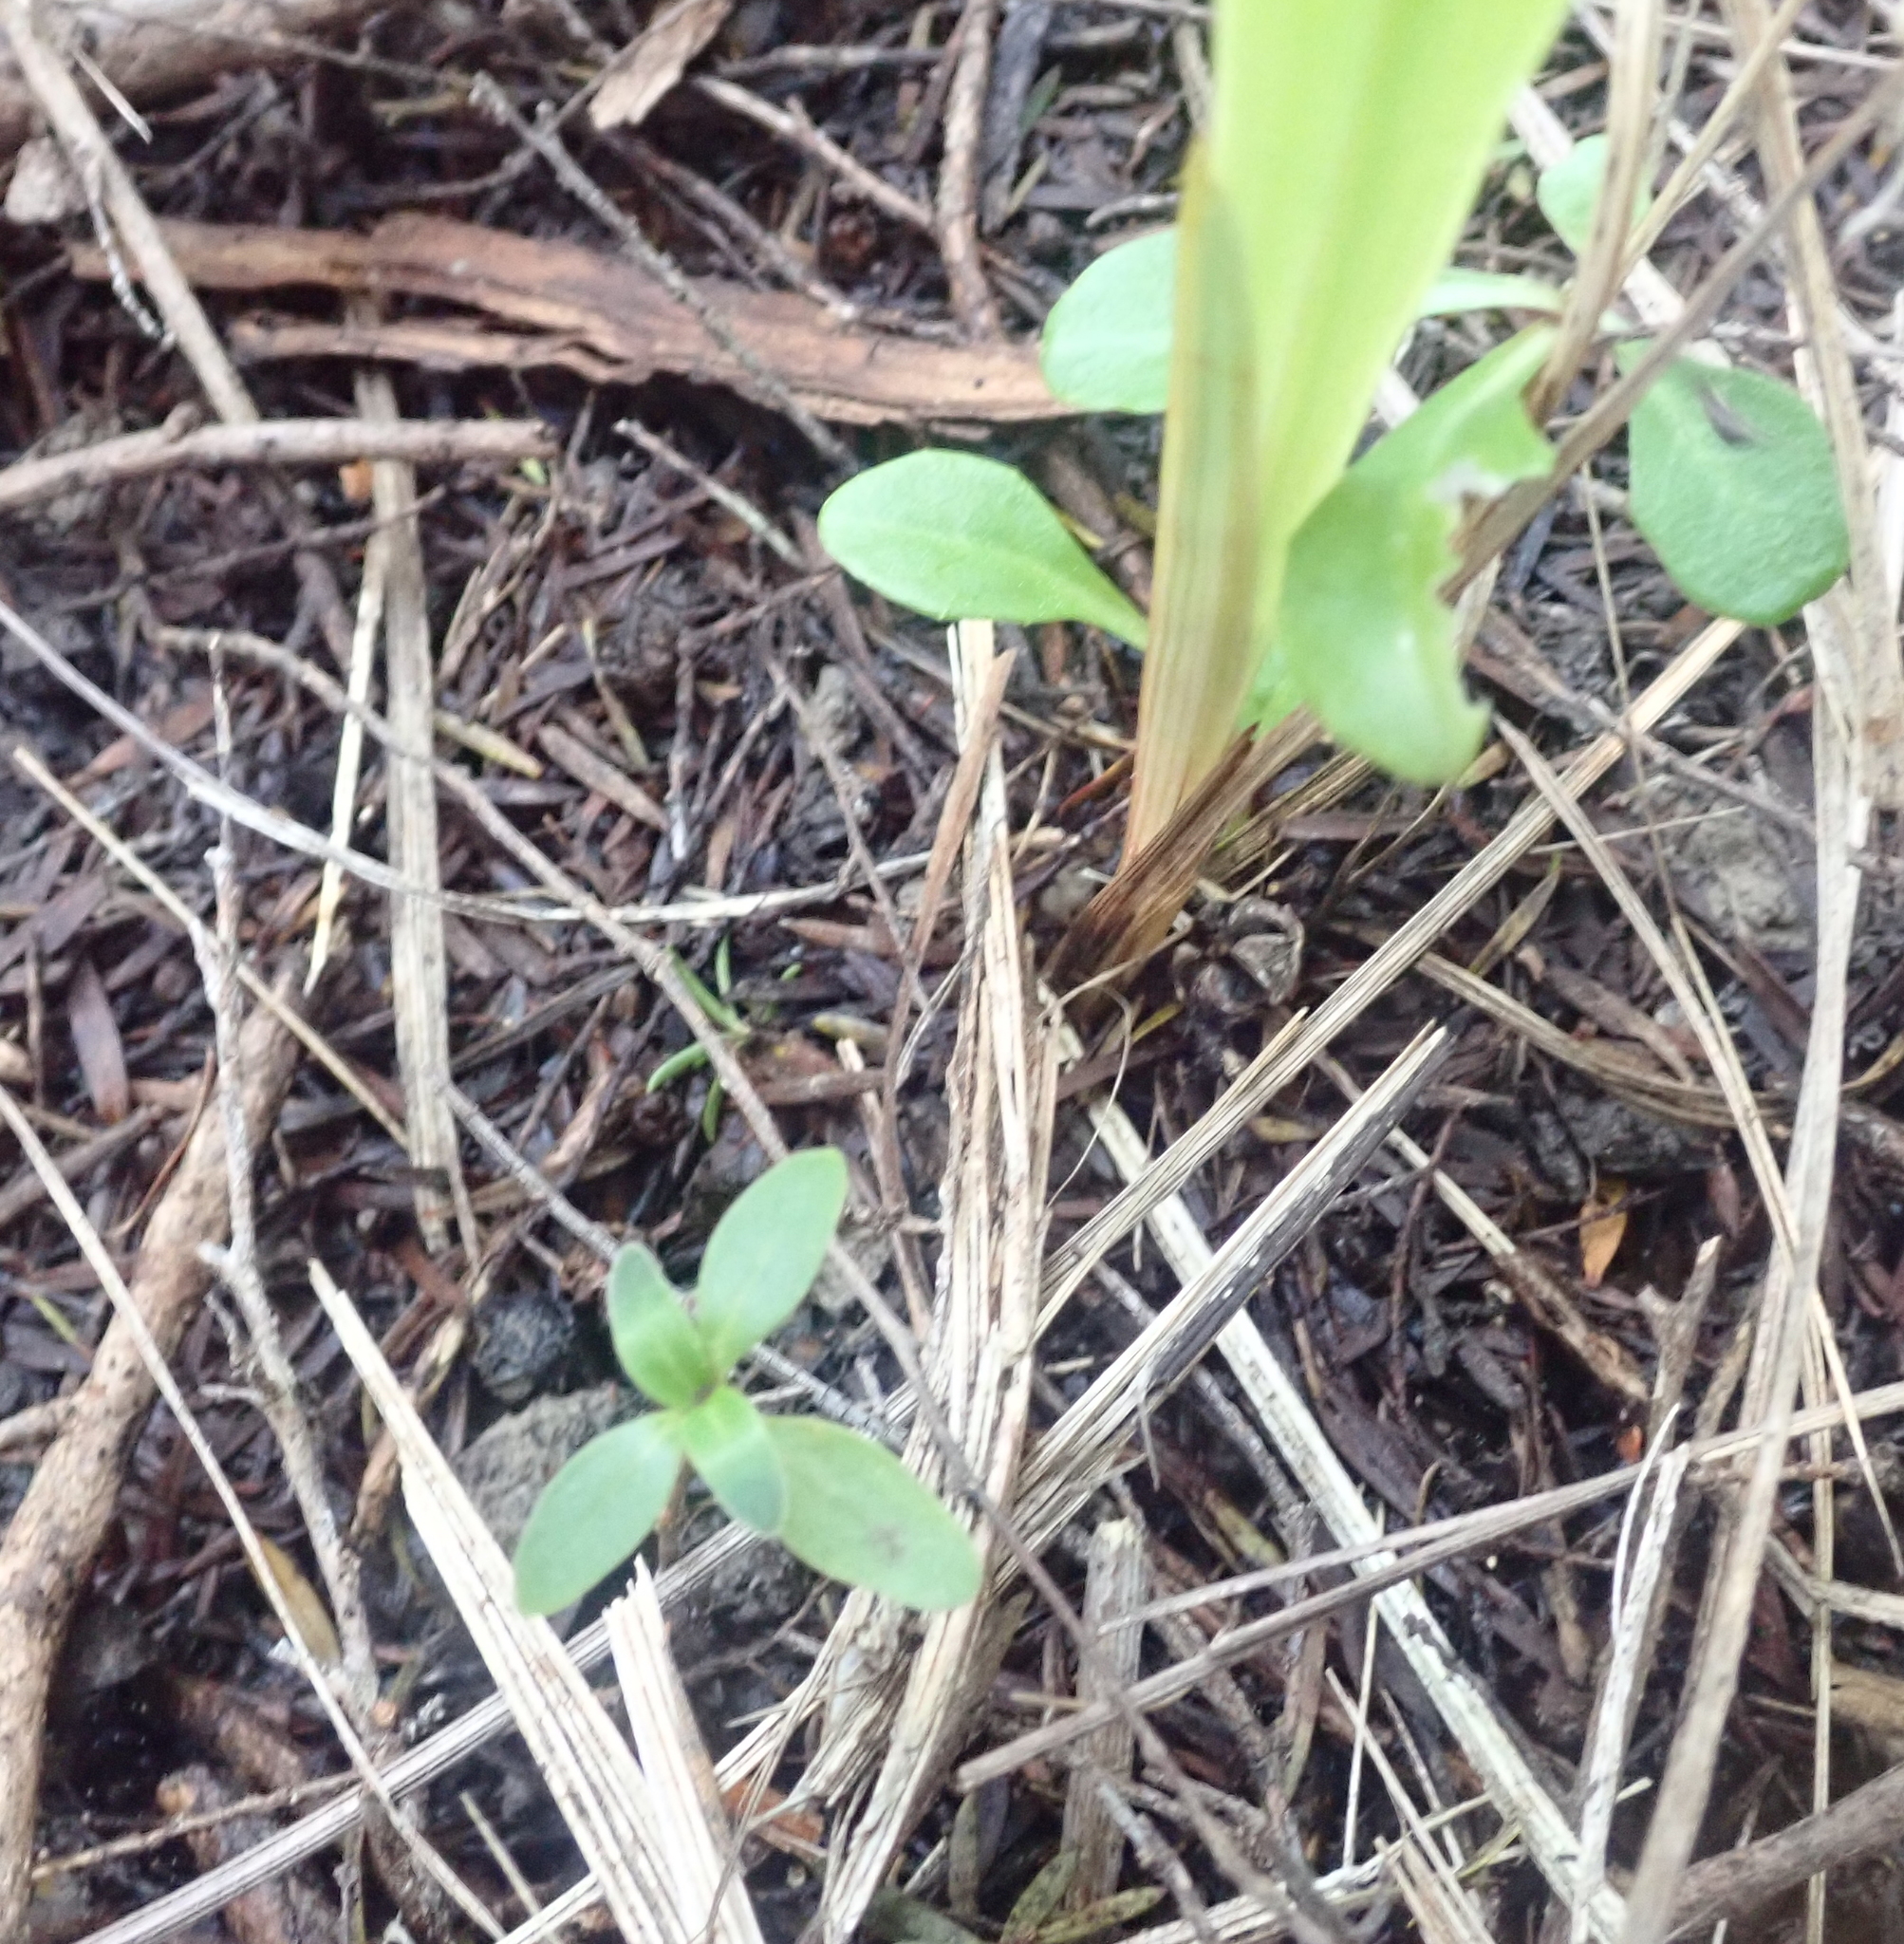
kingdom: Plantae
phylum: Tracheophyta
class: Magnoliopsida
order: Gentianales
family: Rubiaceae
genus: Coprosma
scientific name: Coprosma robusta
